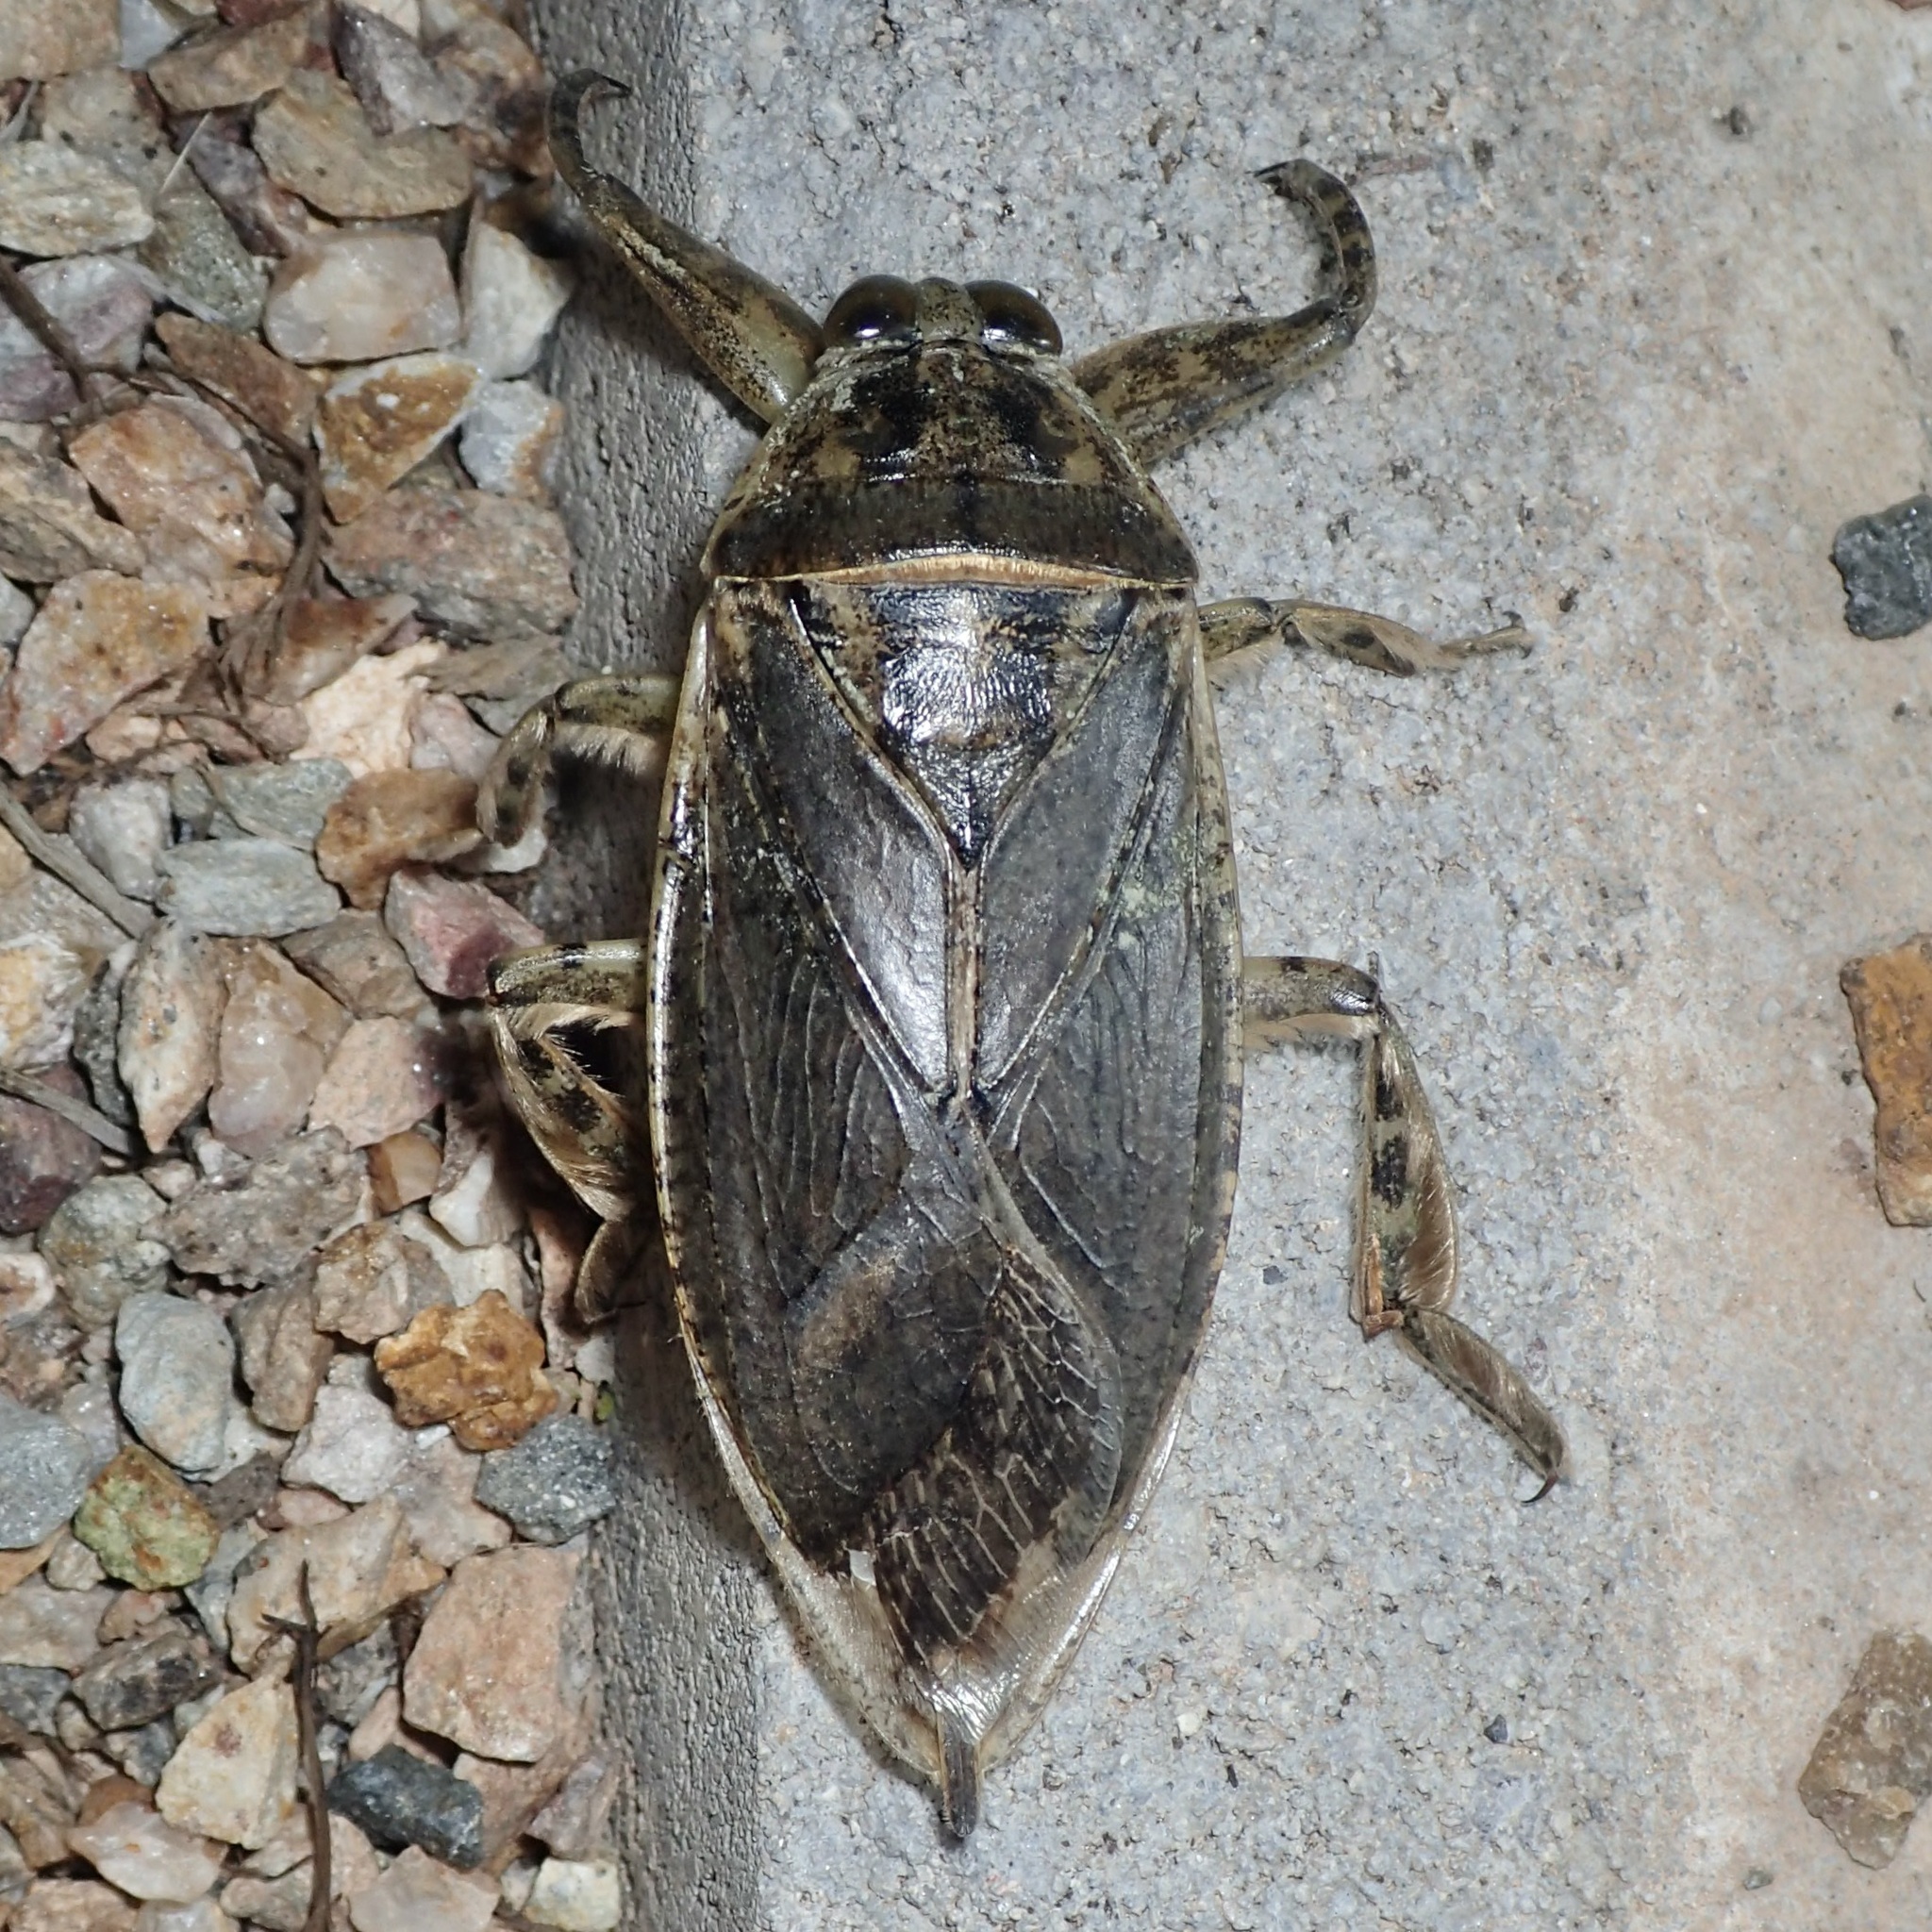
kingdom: Animalia
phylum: Arthropoda
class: Insecta
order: Hemiptera
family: Belostomatidae
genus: Lethocerus
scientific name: Lethocerus medius
